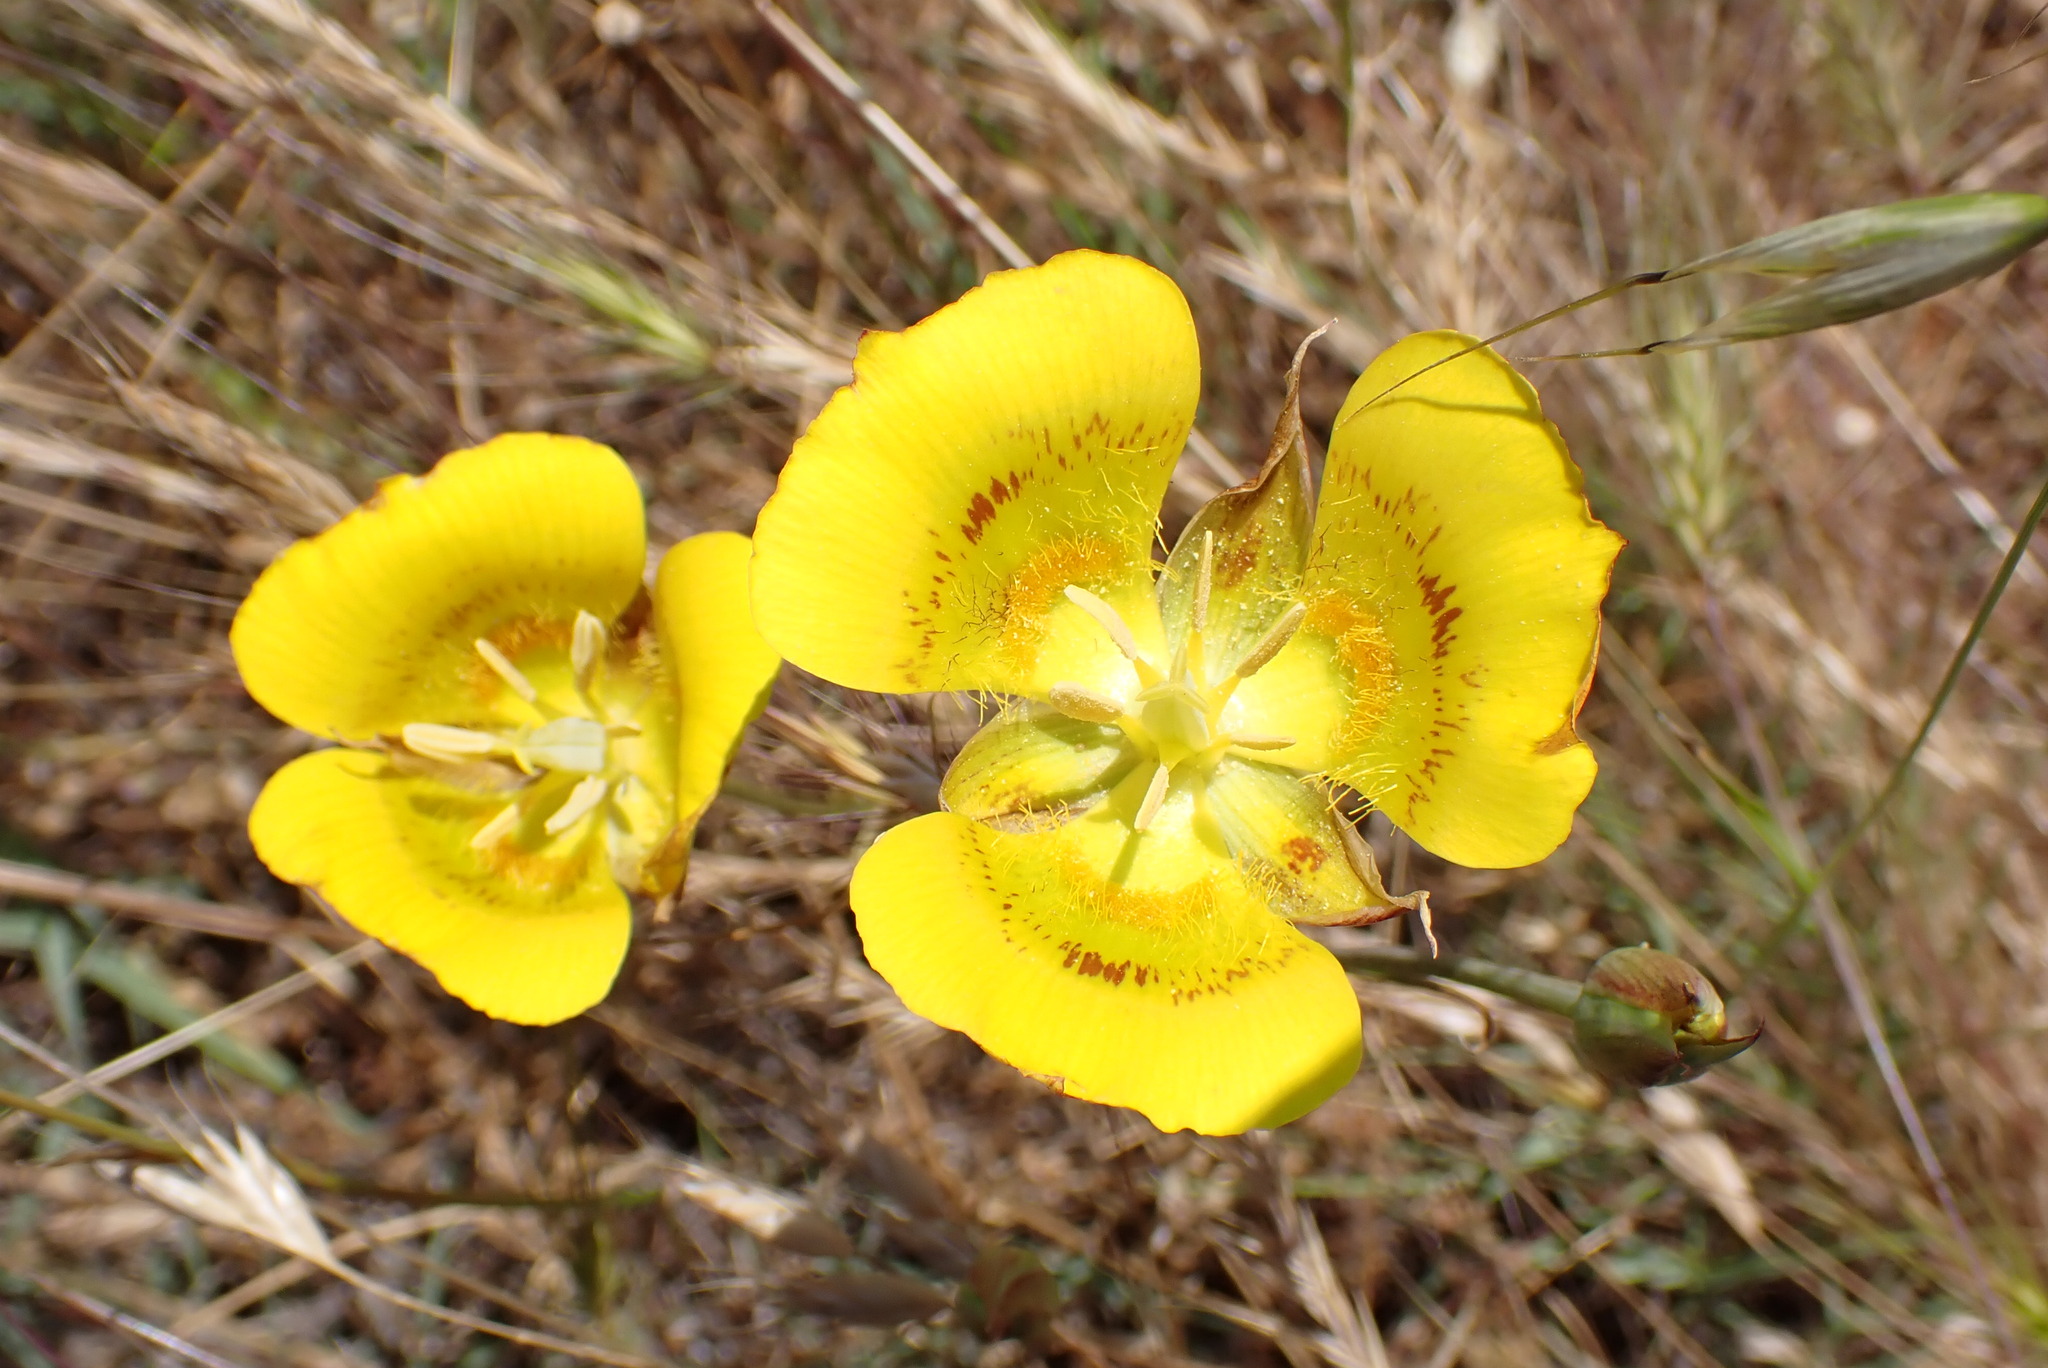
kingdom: Plantae
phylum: Tracheophyta
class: Liliopsida
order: Liliales
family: Liliaceae
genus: Calochortus
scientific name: Calochortus luteus
